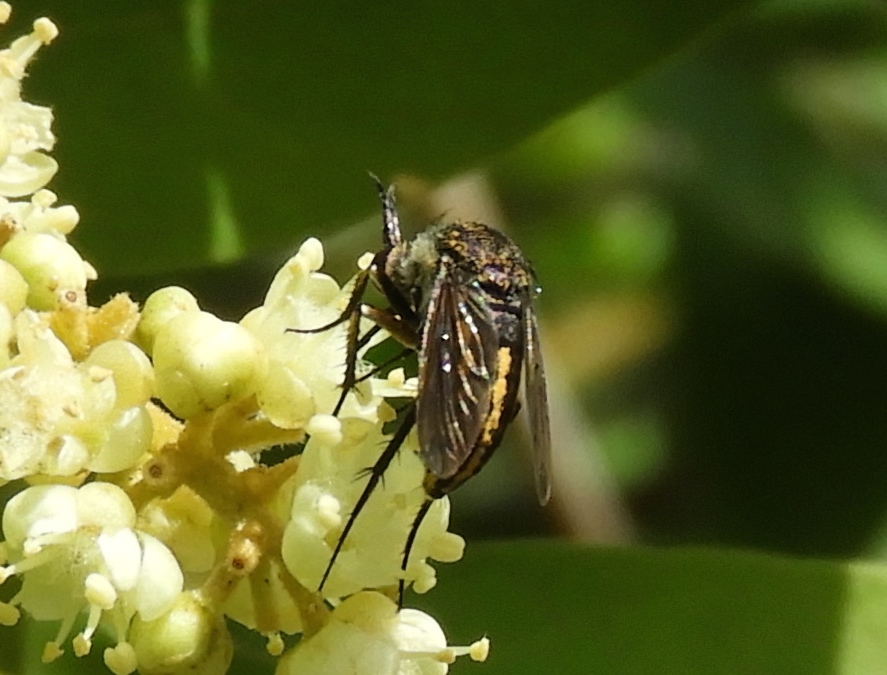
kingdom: Animalia
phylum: Arthropoda
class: Insecta
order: Diptera
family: Bombyliidae
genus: Toxophora
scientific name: Toxophora
